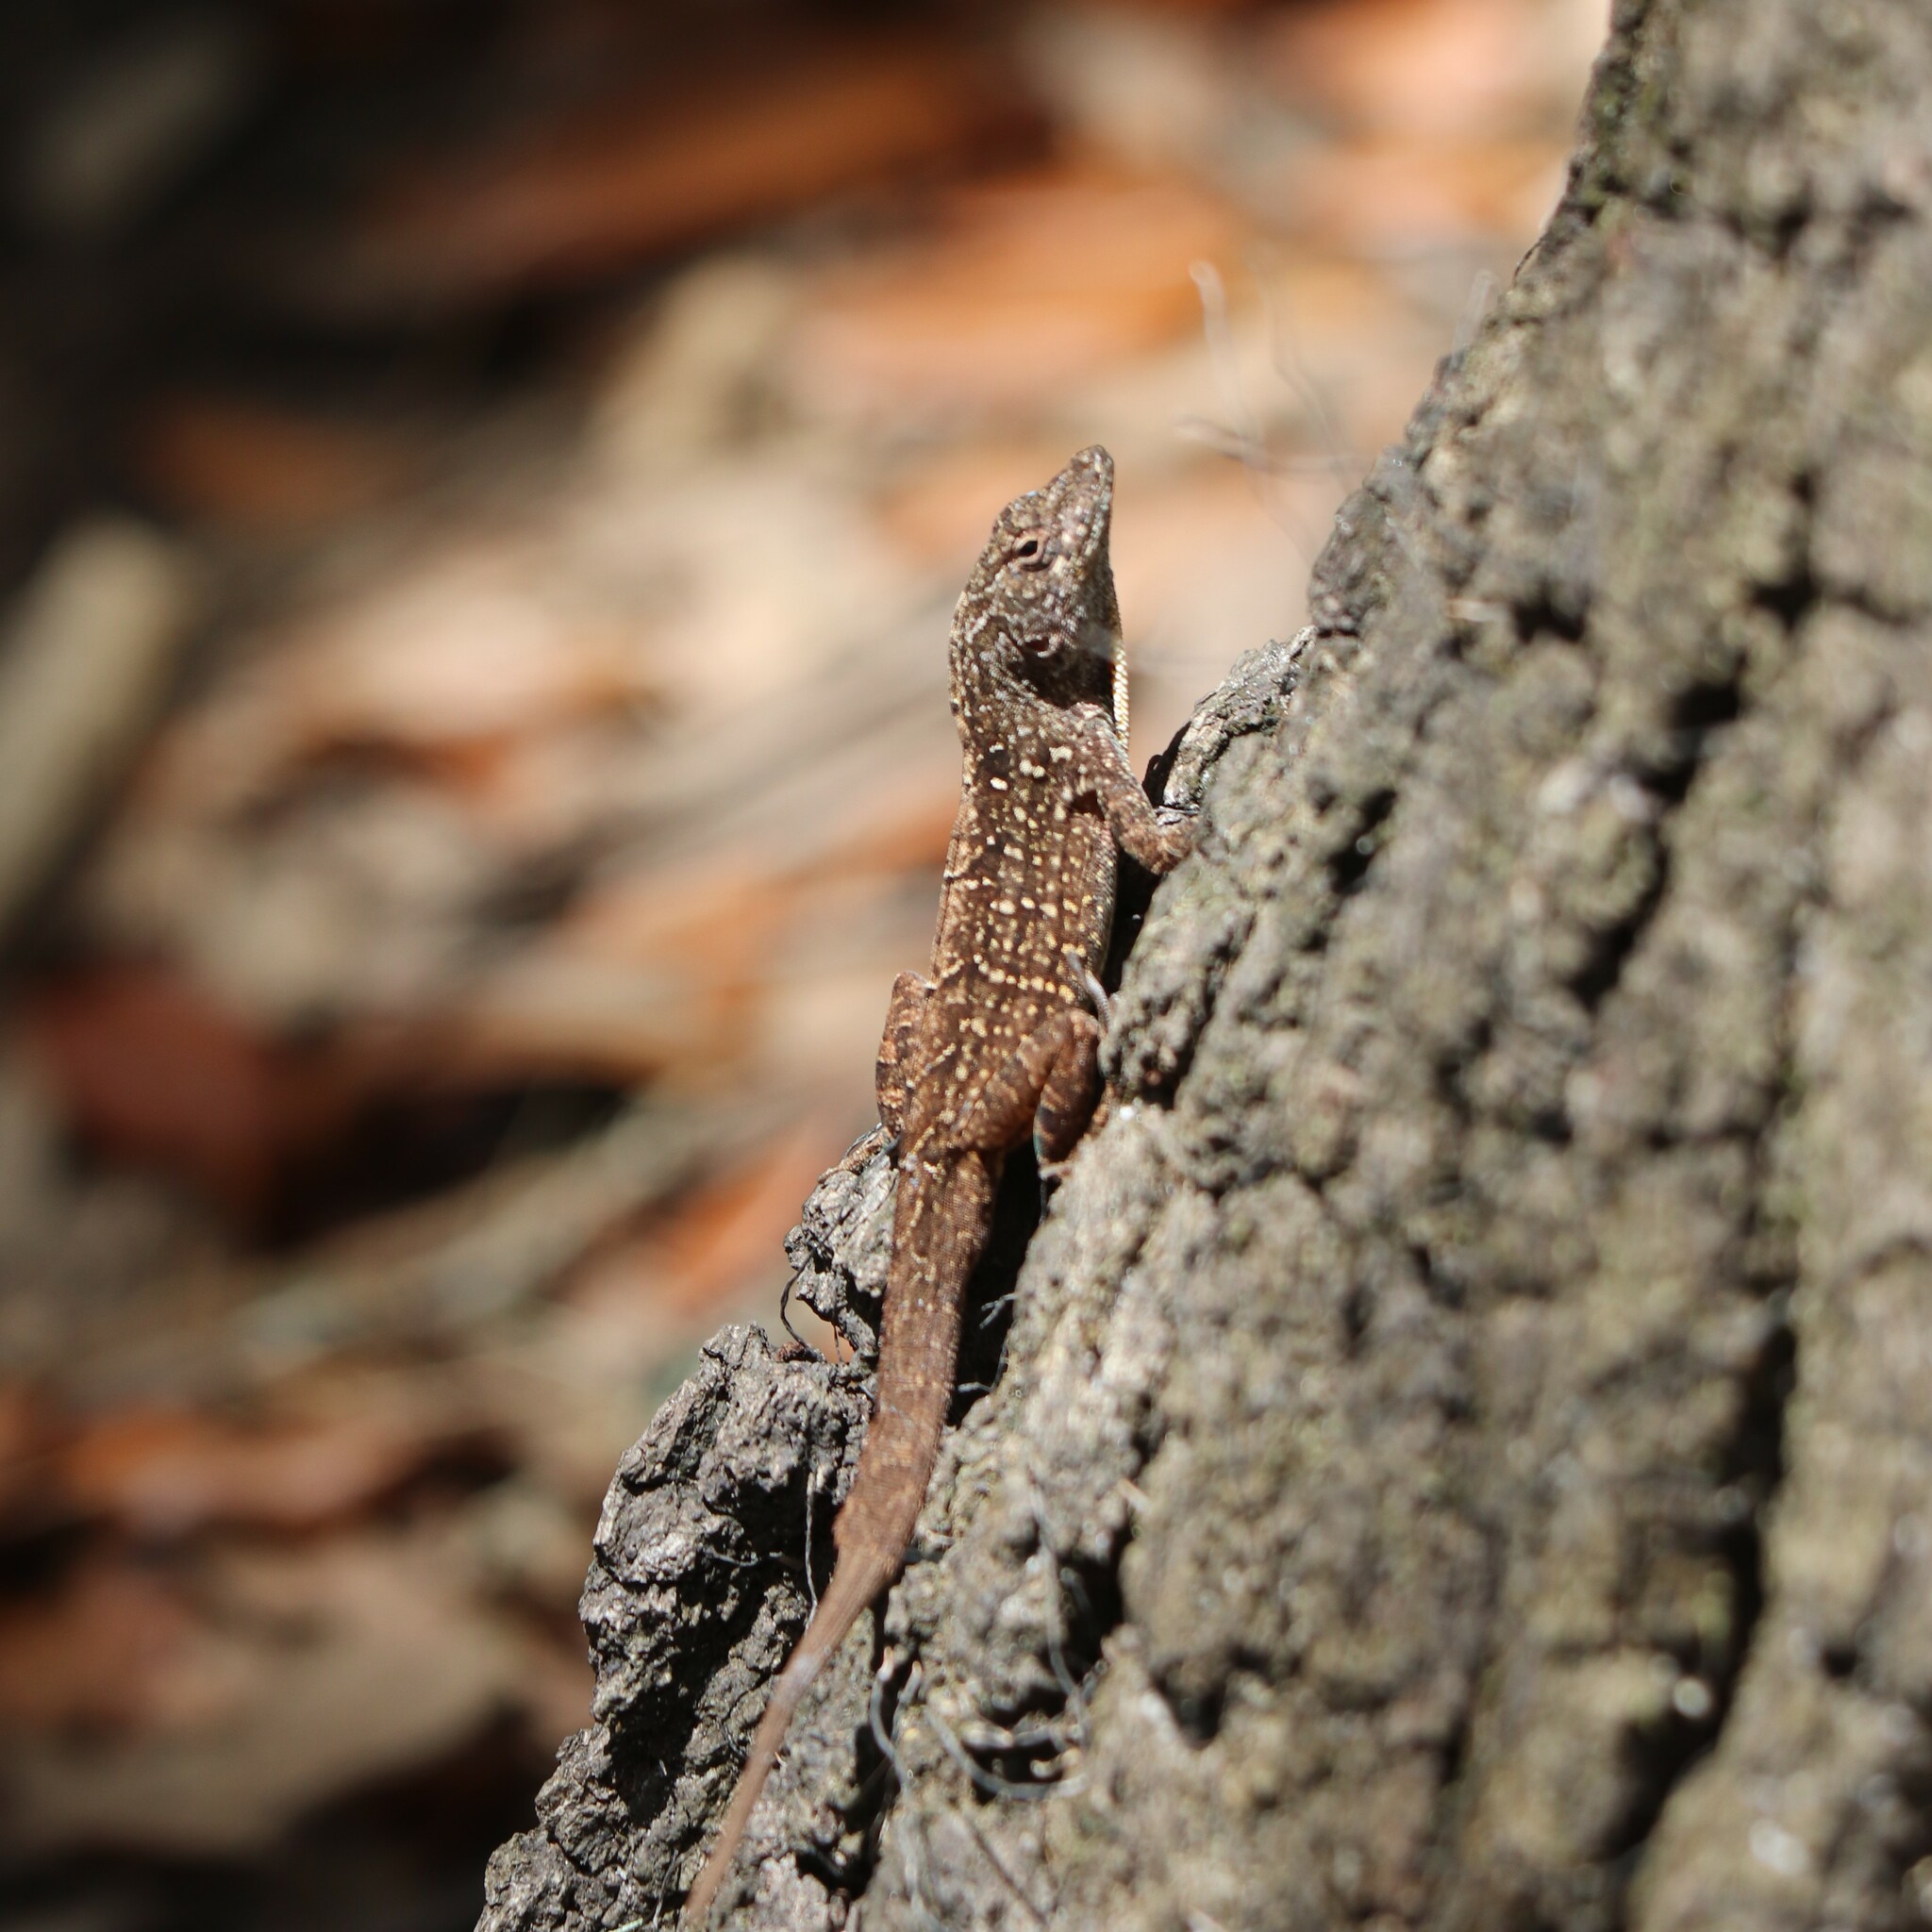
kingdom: Animalia
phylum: Chordata
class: Squamata
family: Dactyloidae
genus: Anolis
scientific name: Anolis sagrei
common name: Brown anole
